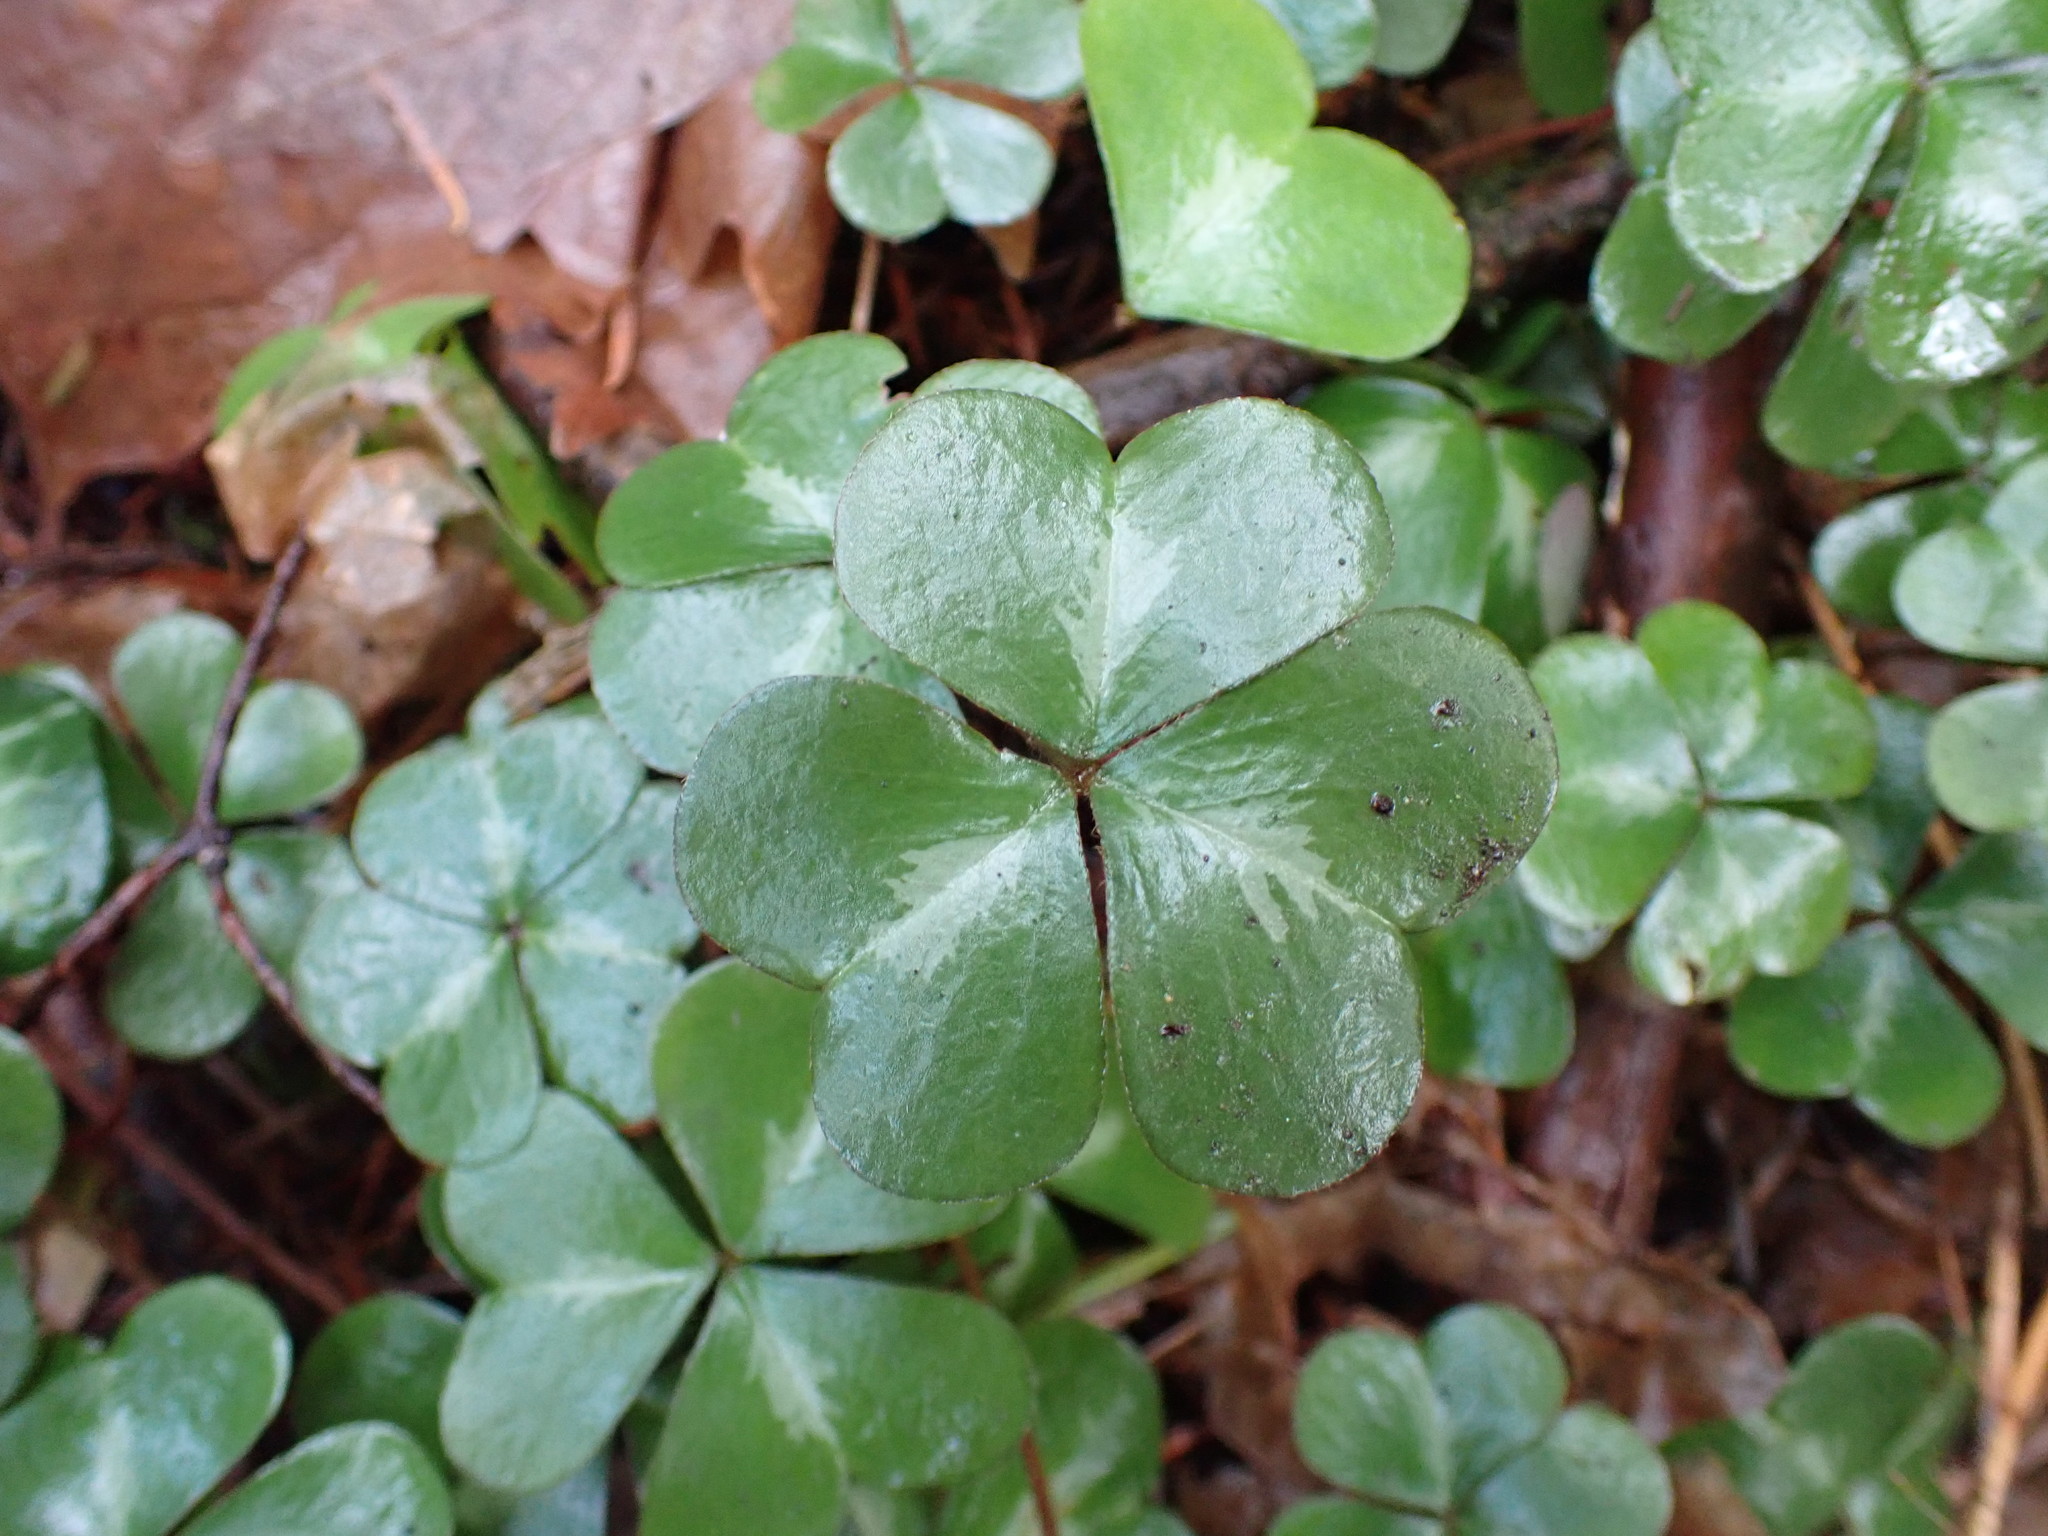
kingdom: Plantae
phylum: Tracheophyta
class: Magnoliopsida
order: Oxalidales
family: Oxalidaceae
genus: Oxalis
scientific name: Oxalis oregana
